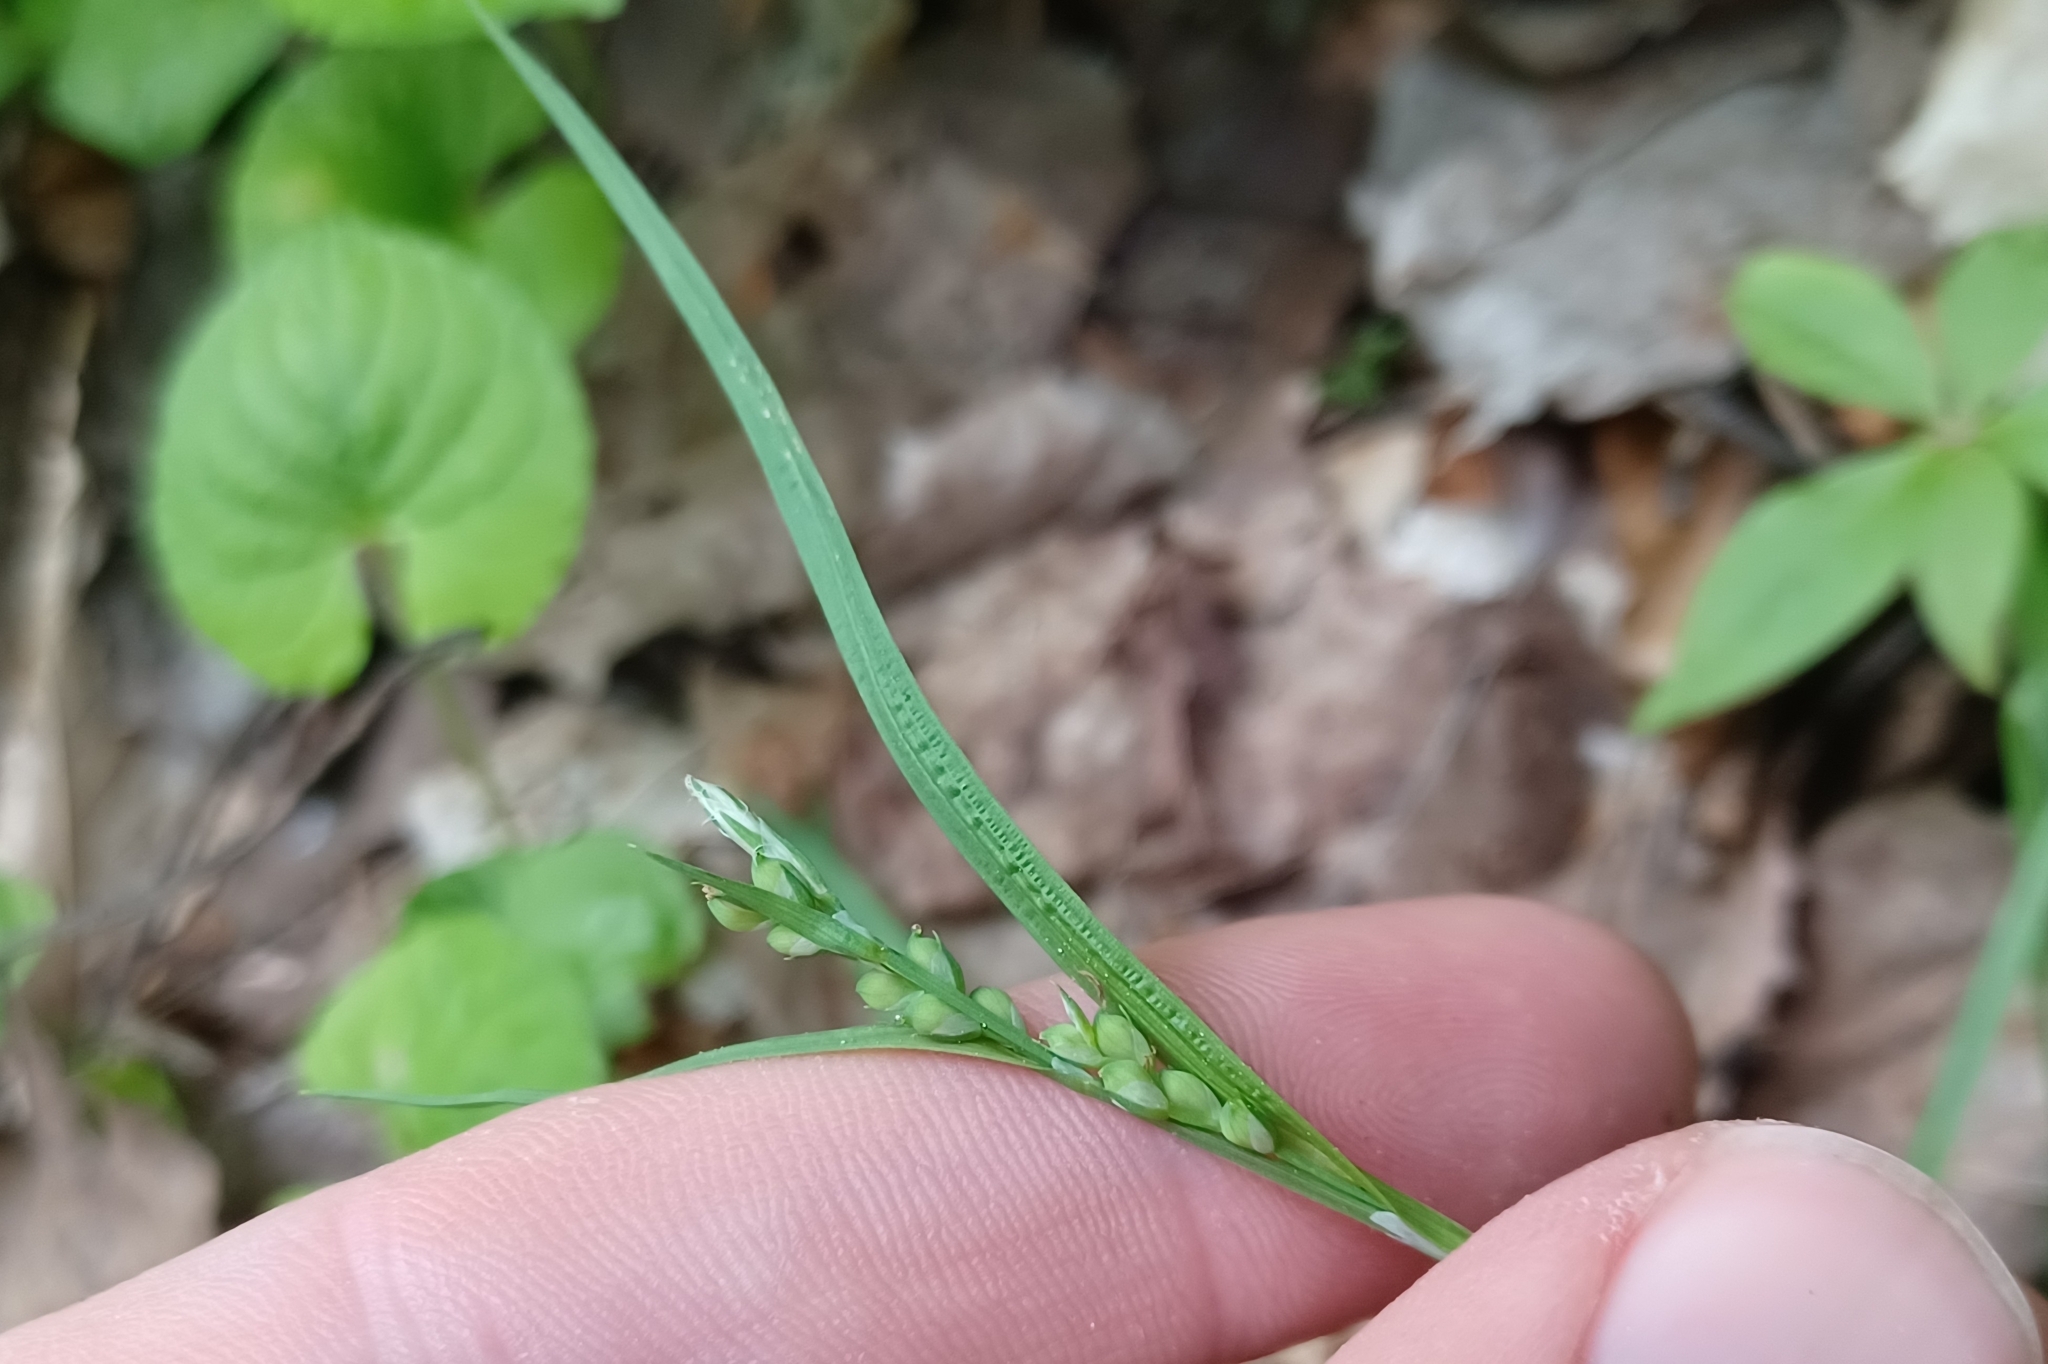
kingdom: Plantae
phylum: Tracheophyta
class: Liliopsida
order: Poales
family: Cyperaceae
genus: Carex
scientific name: Carex ormostachya
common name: Necklace spike sedge
